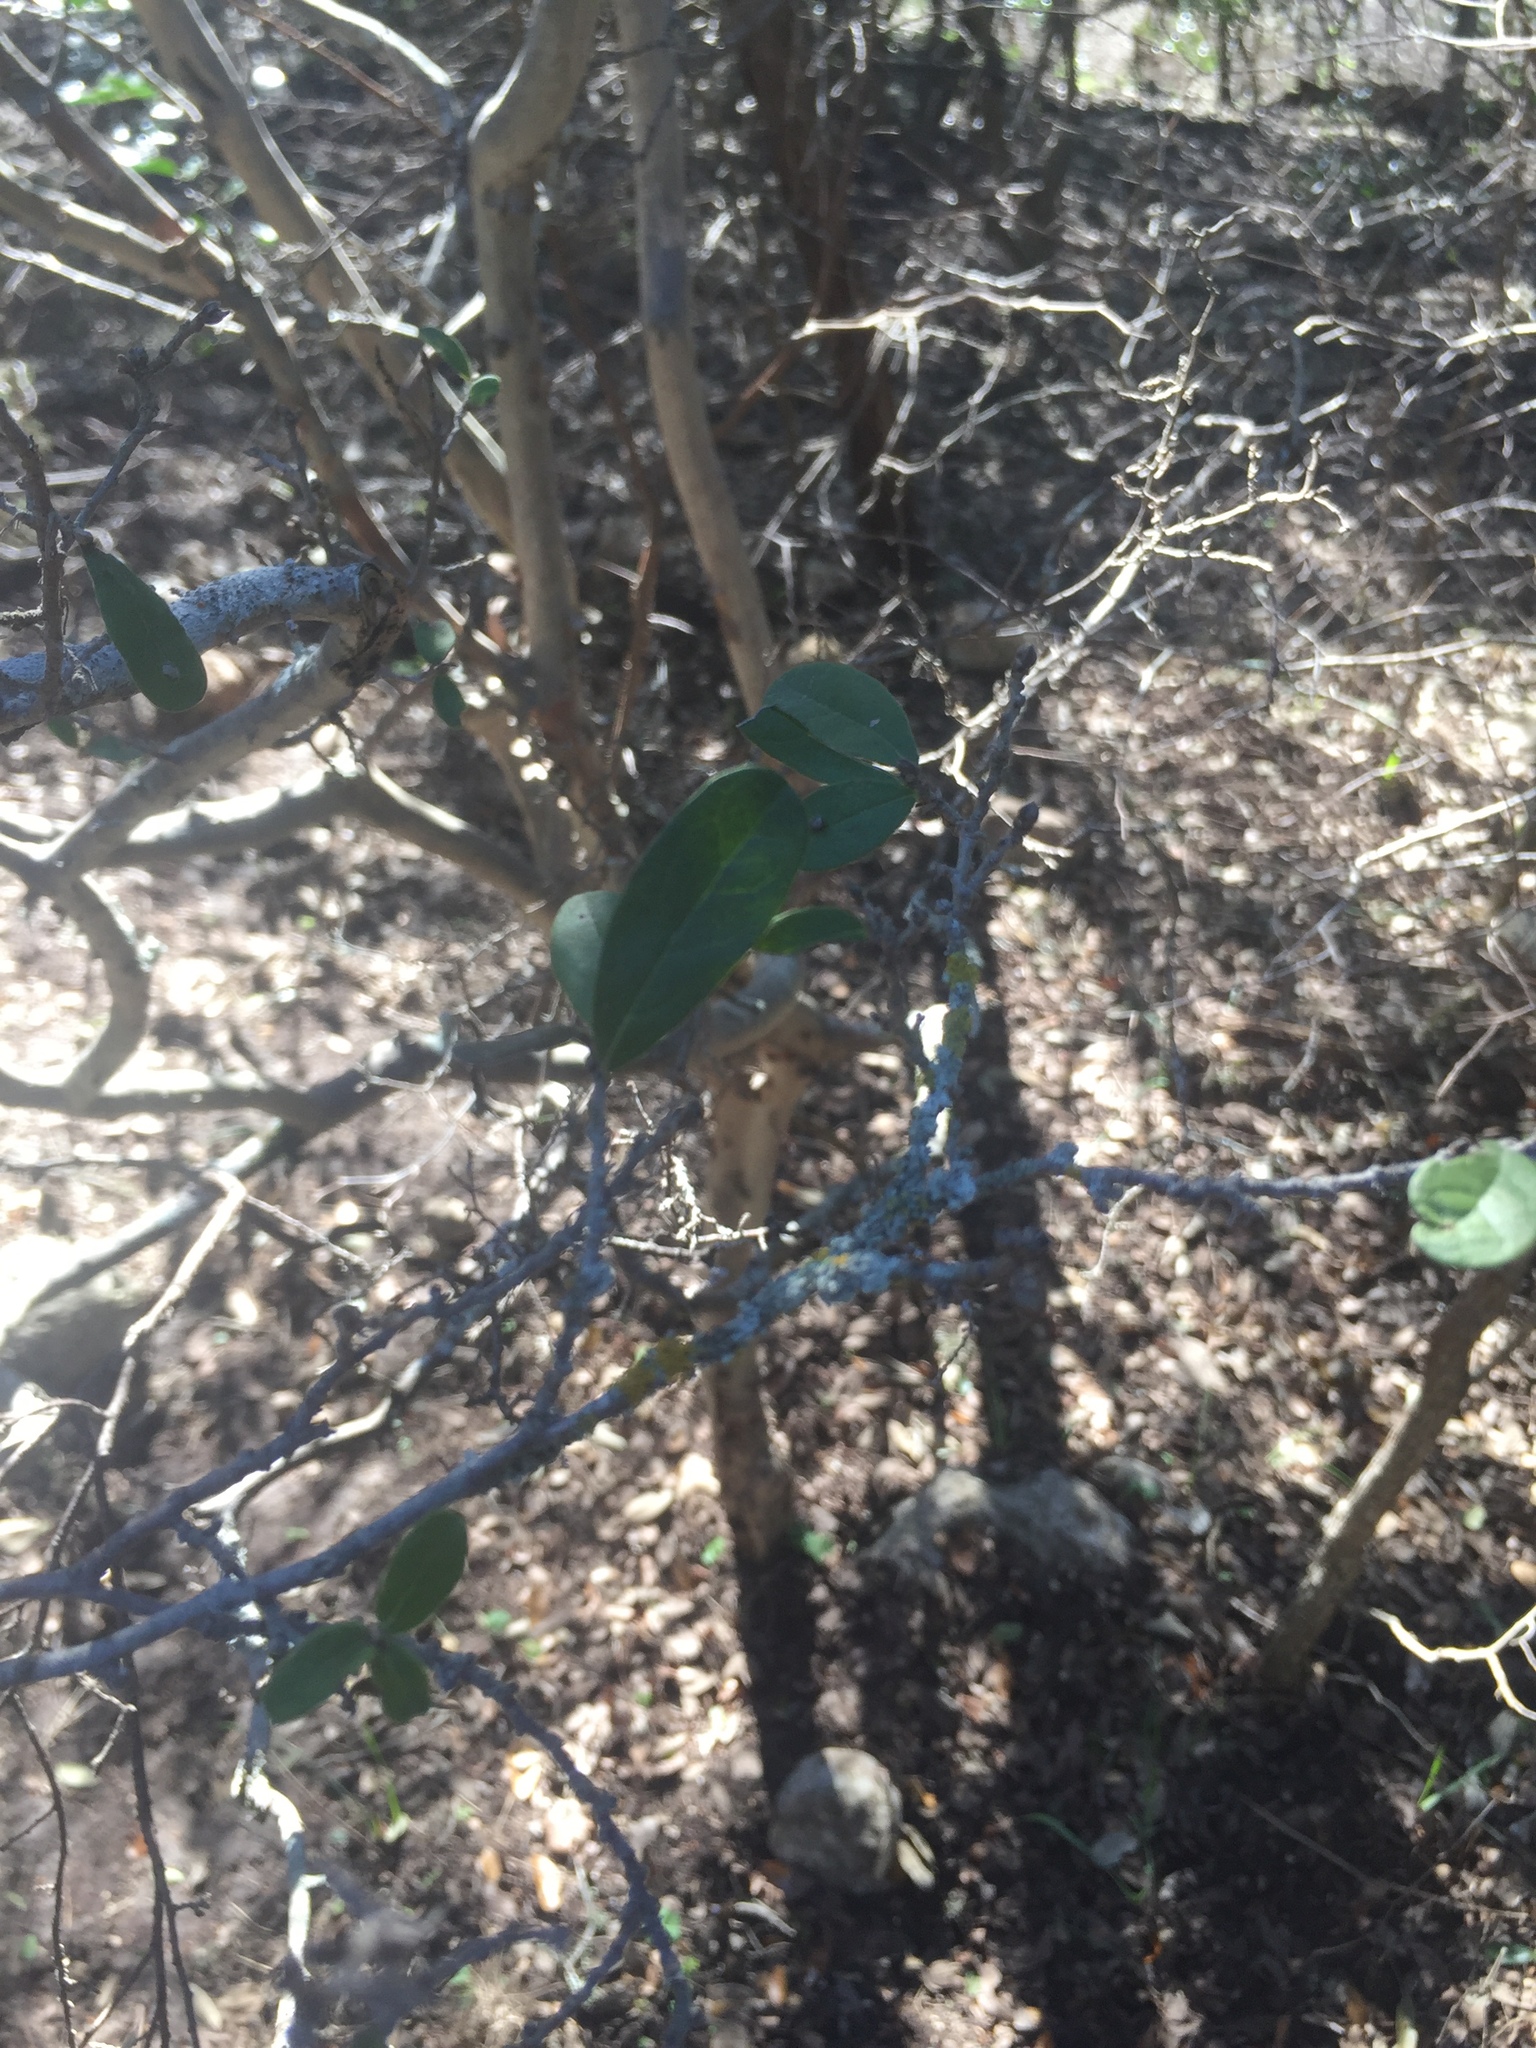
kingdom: Plantae
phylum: Tracheophyta
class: Magnoliopsida
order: Ericales
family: Ebenaceae
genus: Diospyros
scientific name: Diospyros texana
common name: Texas persimmon
